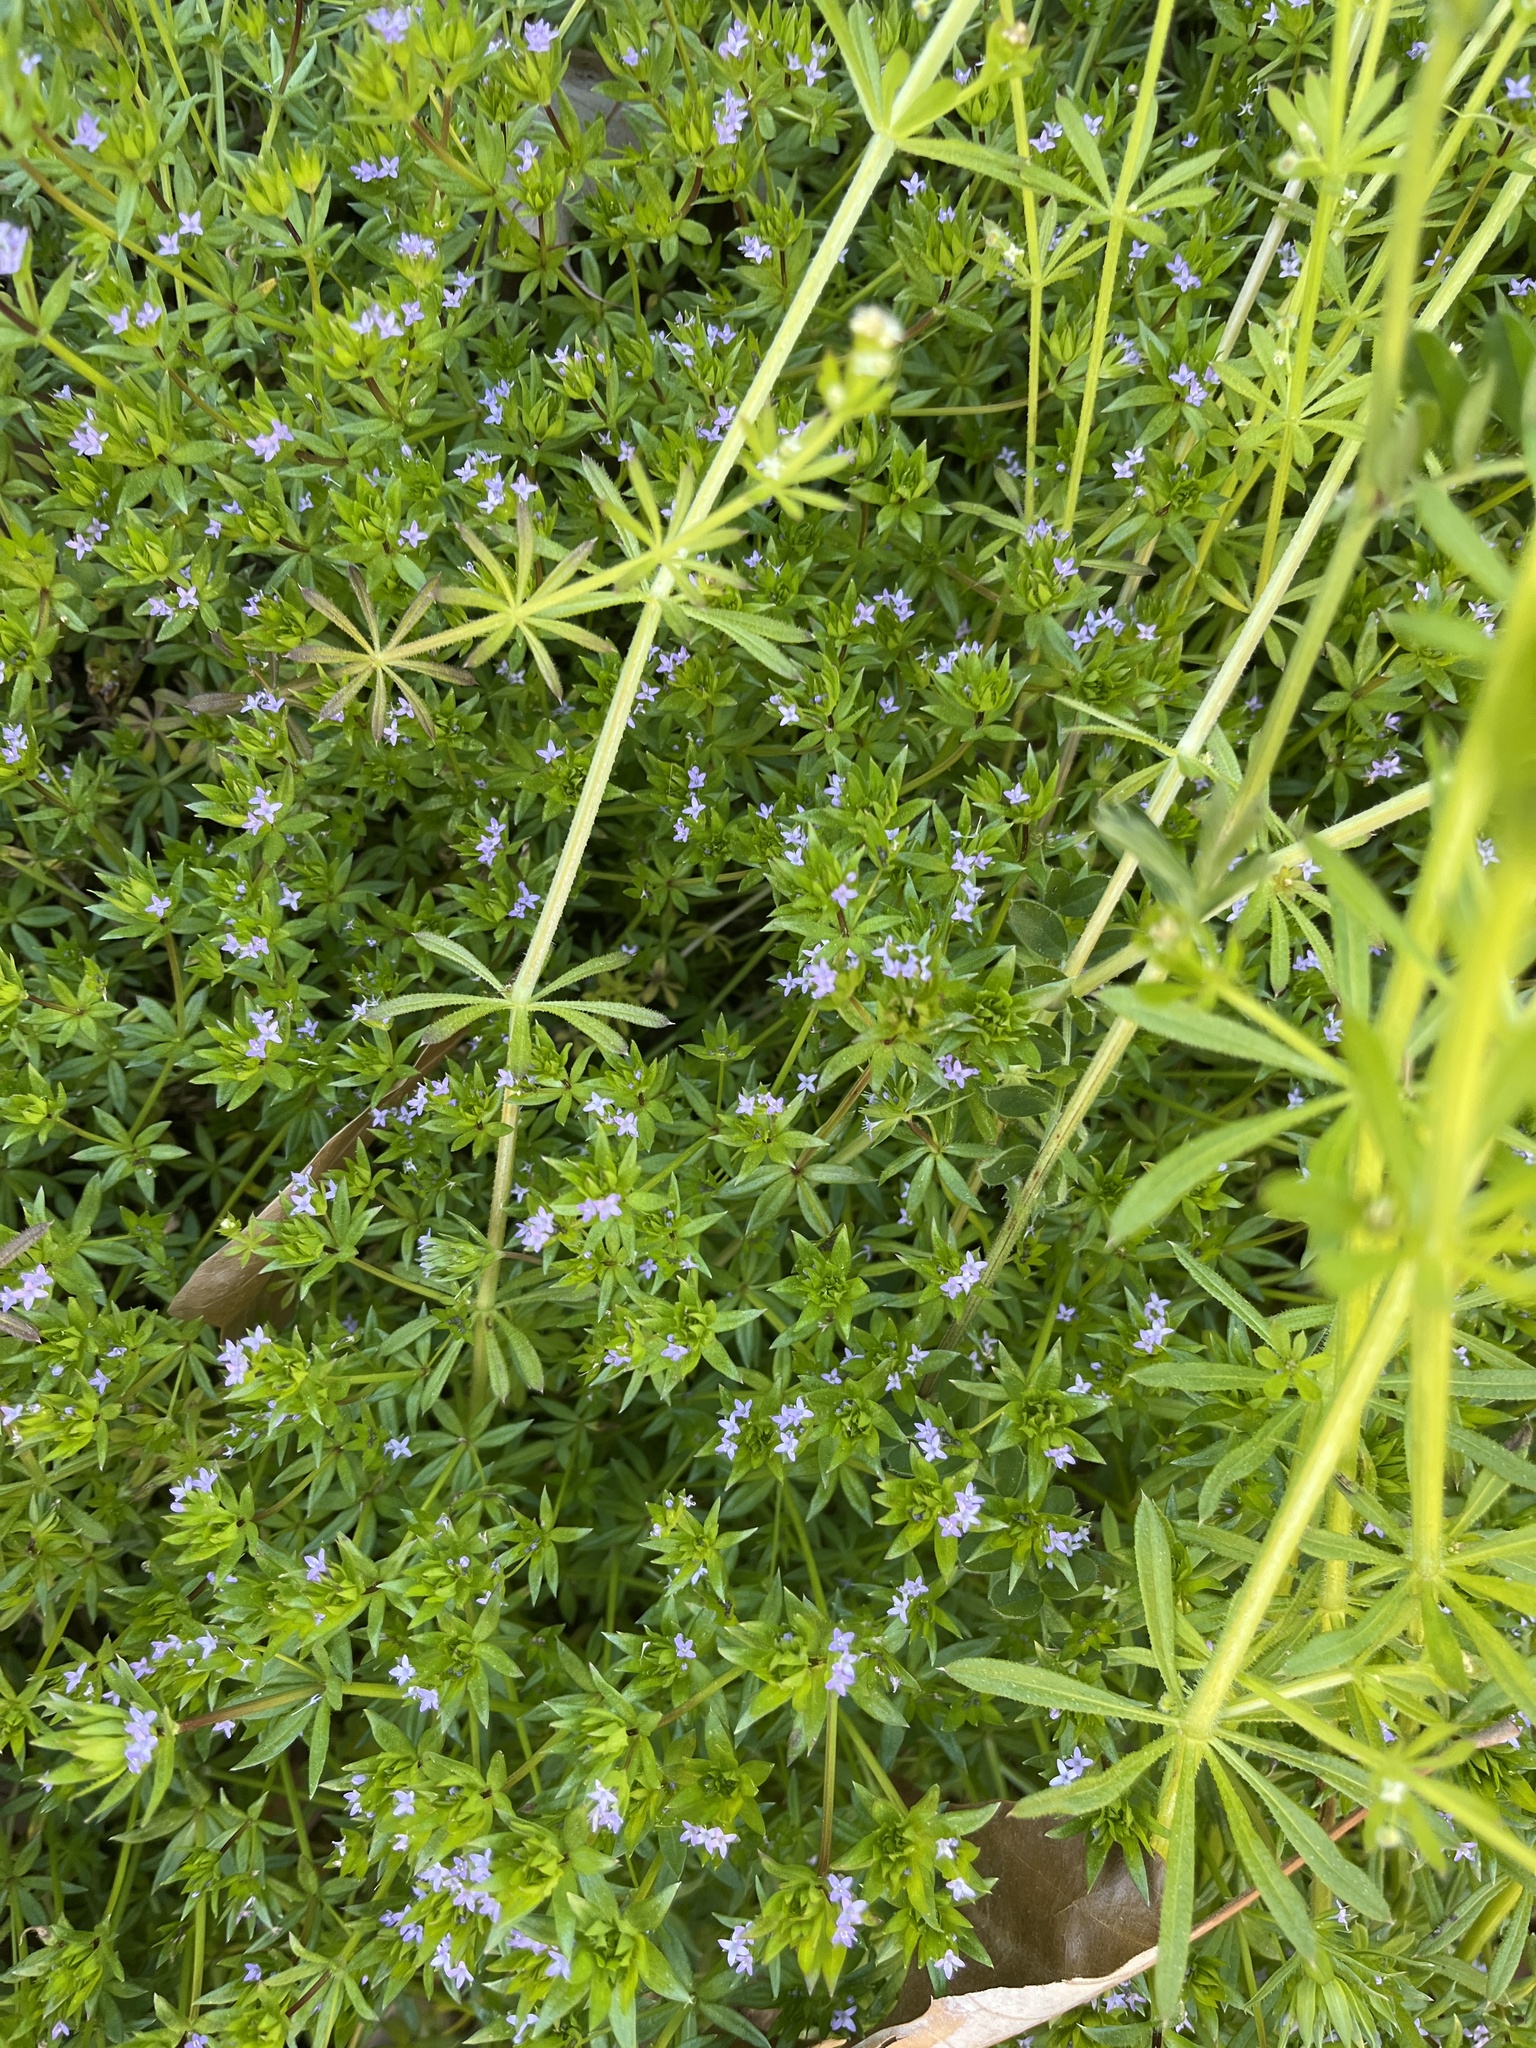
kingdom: Plantae
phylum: Tracheophyta
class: Magnoliopsida
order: Gentianales
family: Rubiaceae
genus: Sherardia
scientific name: Sherardia arvensis
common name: Field madder
